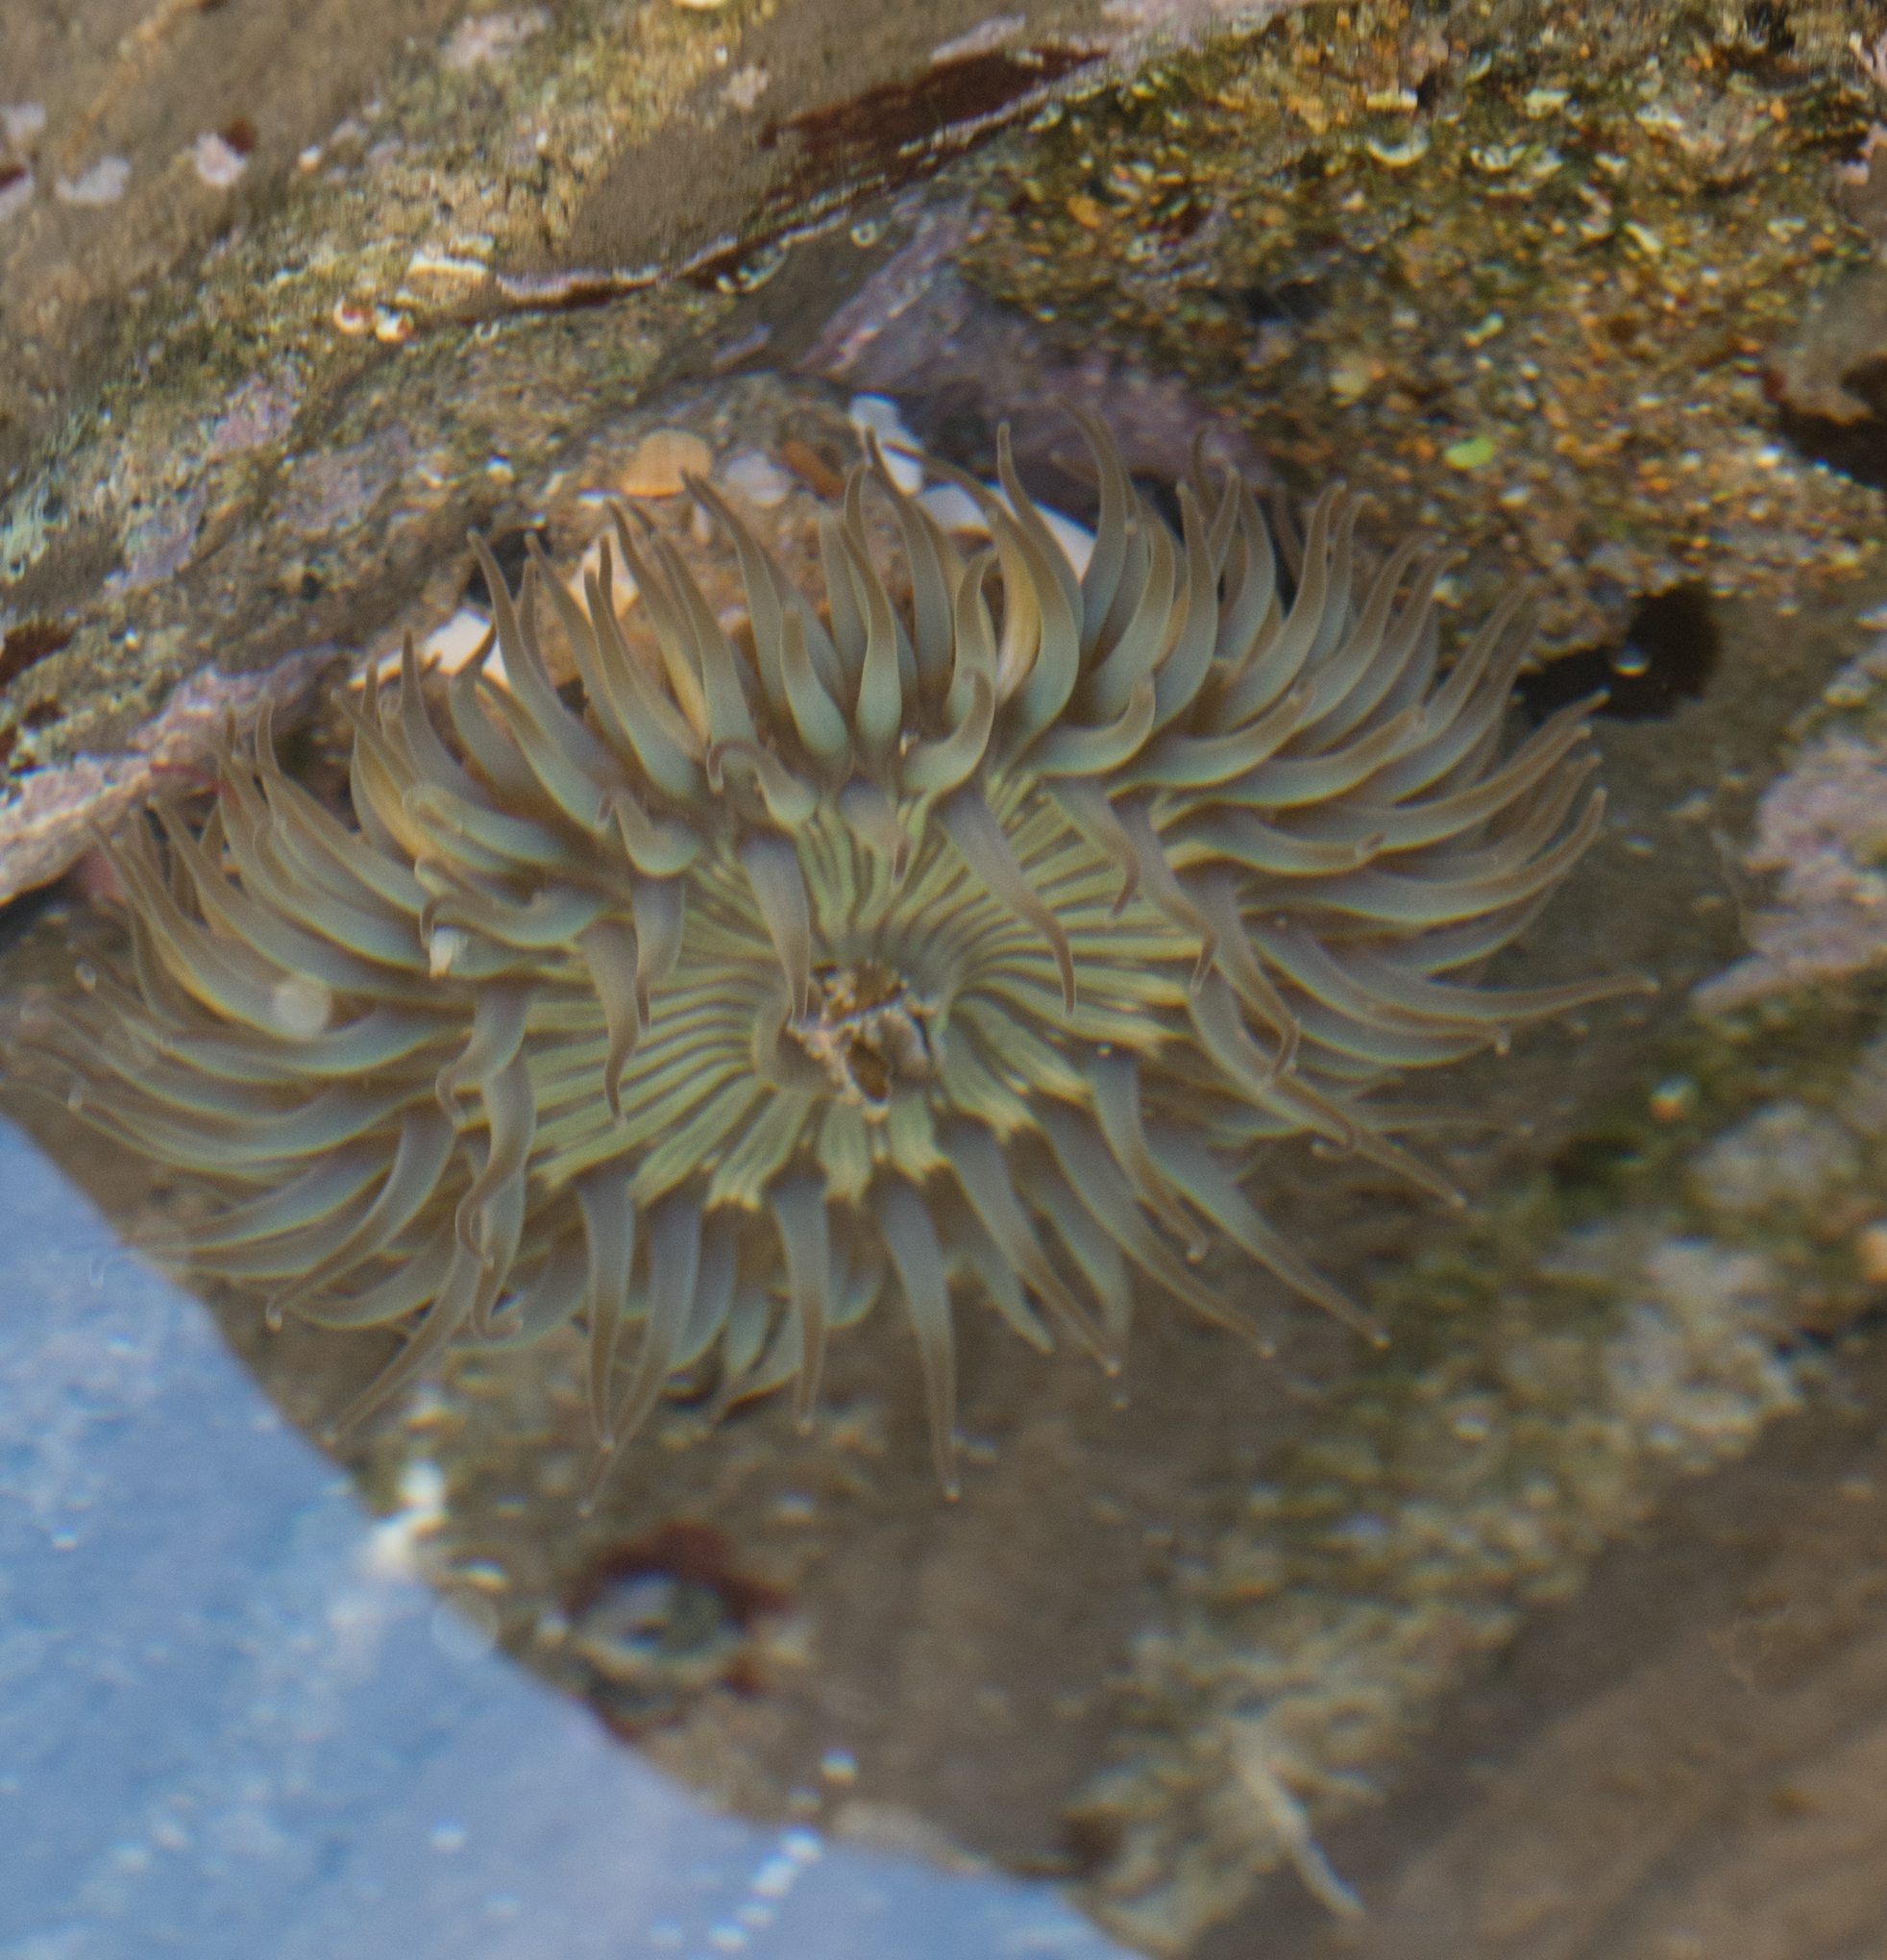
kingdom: Animalia
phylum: Cnidaria
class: Anthozoa
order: Actiniaria
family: Actiniidae
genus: Anthopleura
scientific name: Anthopleura sola
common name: Sun anemone
